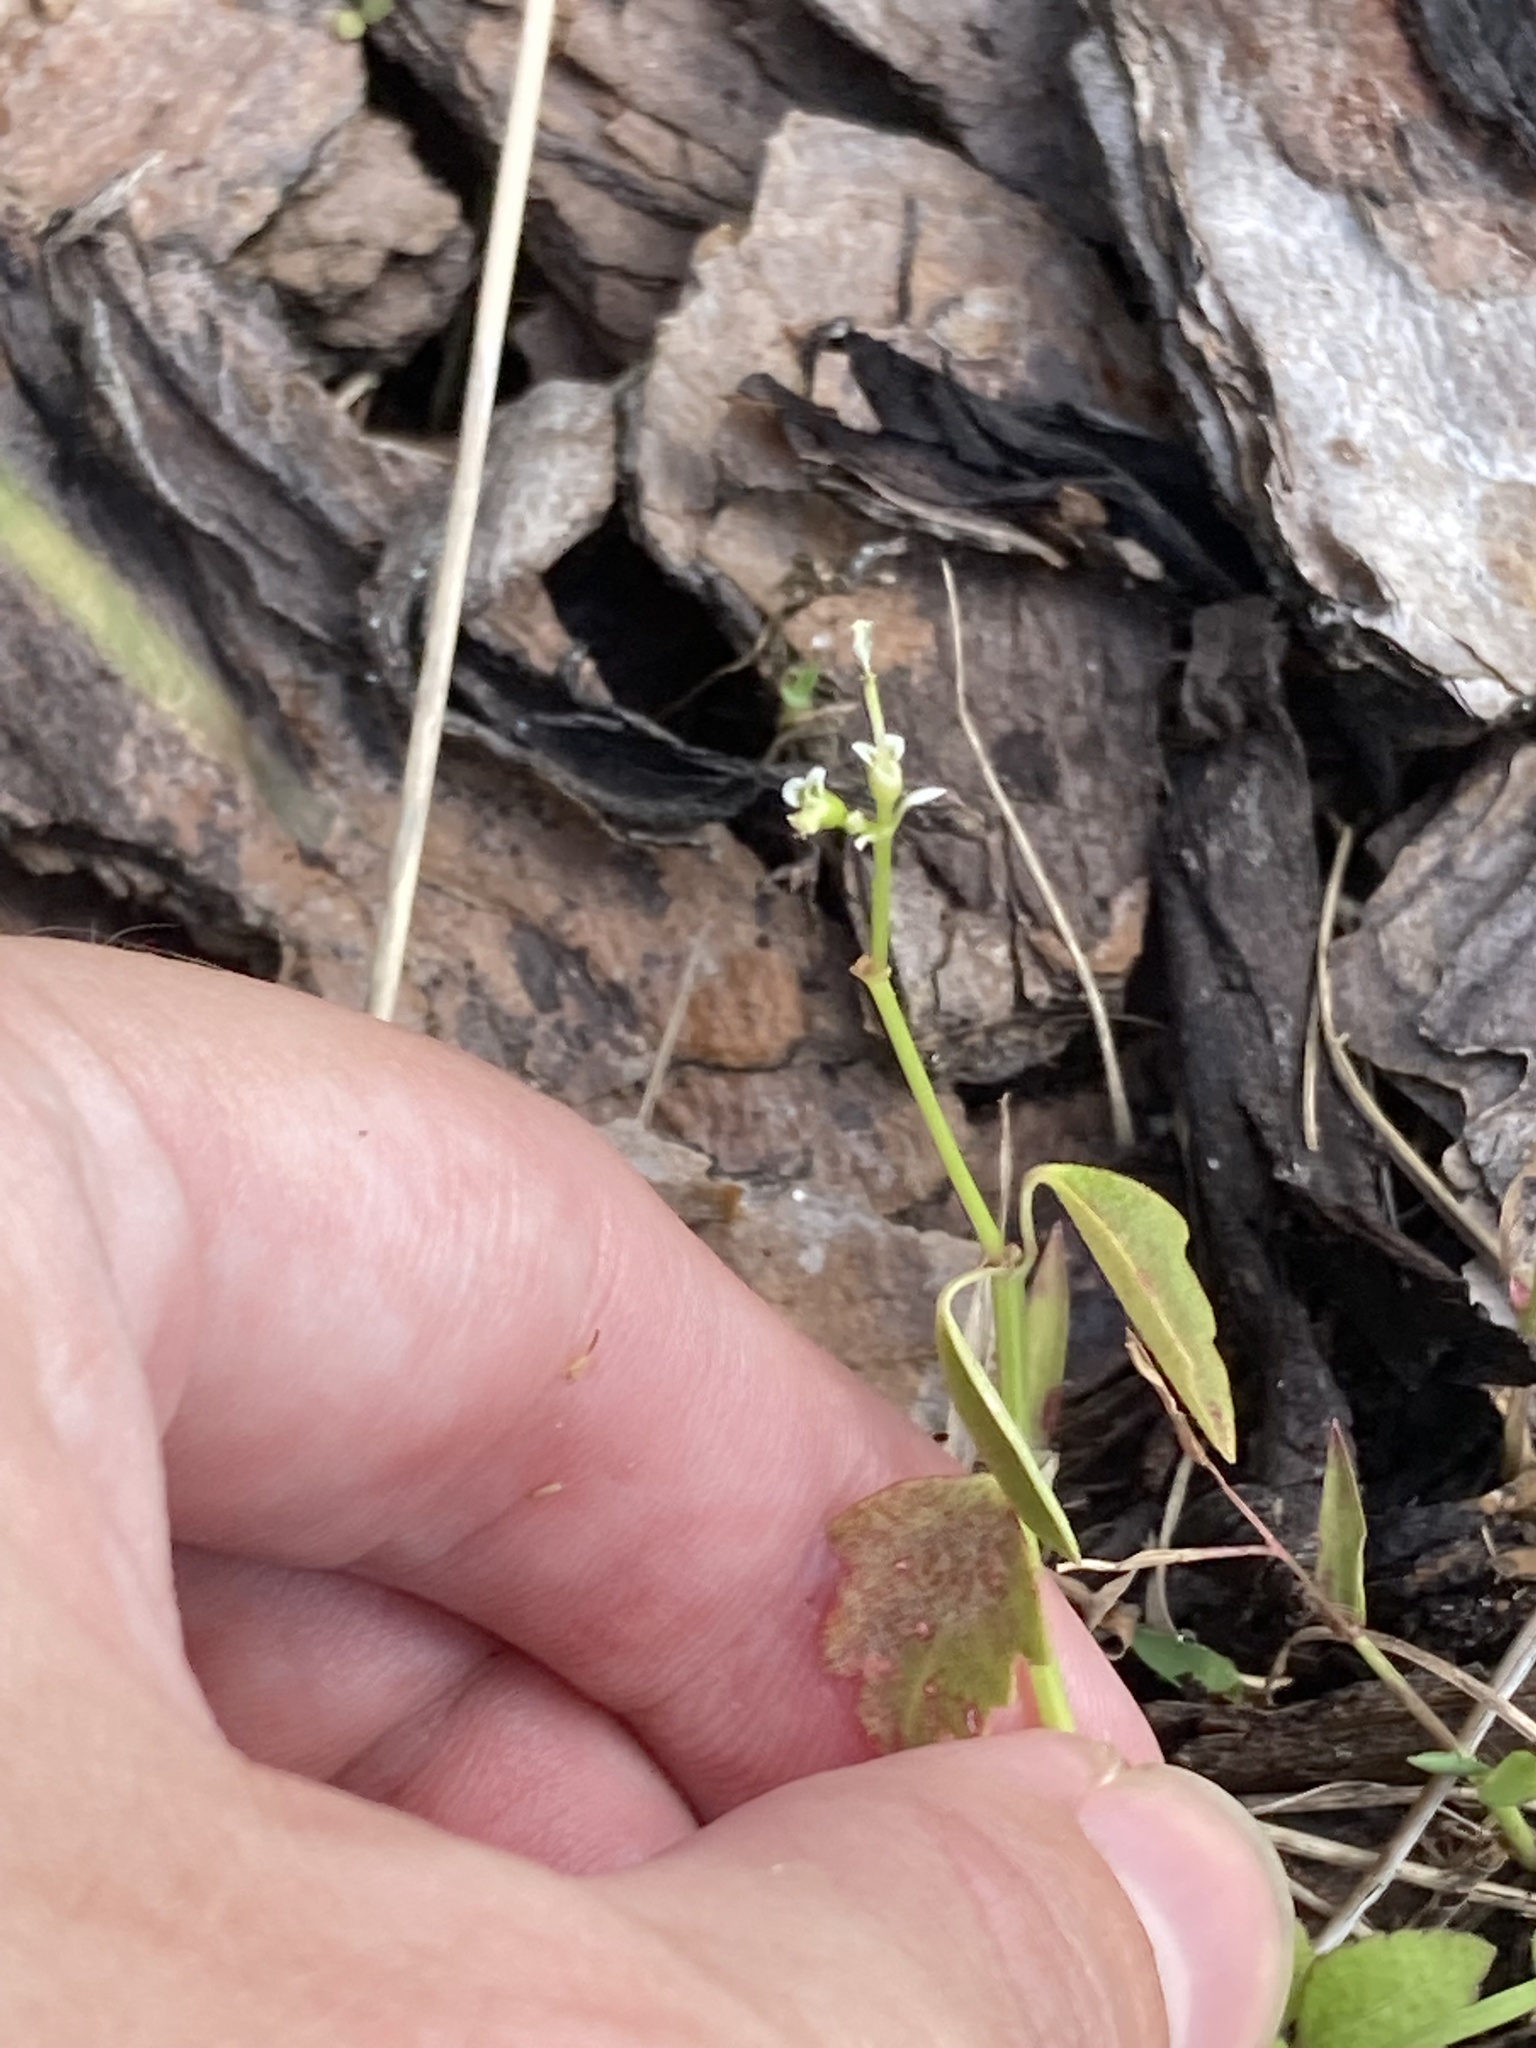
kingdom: Plantae
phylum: Tracheophyta
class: Magnoliopsida
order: Malpighiales
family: Euphorbiaceae
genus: Euphorbia
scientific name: Euphorbia graminea
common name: Grassleaf spurge
